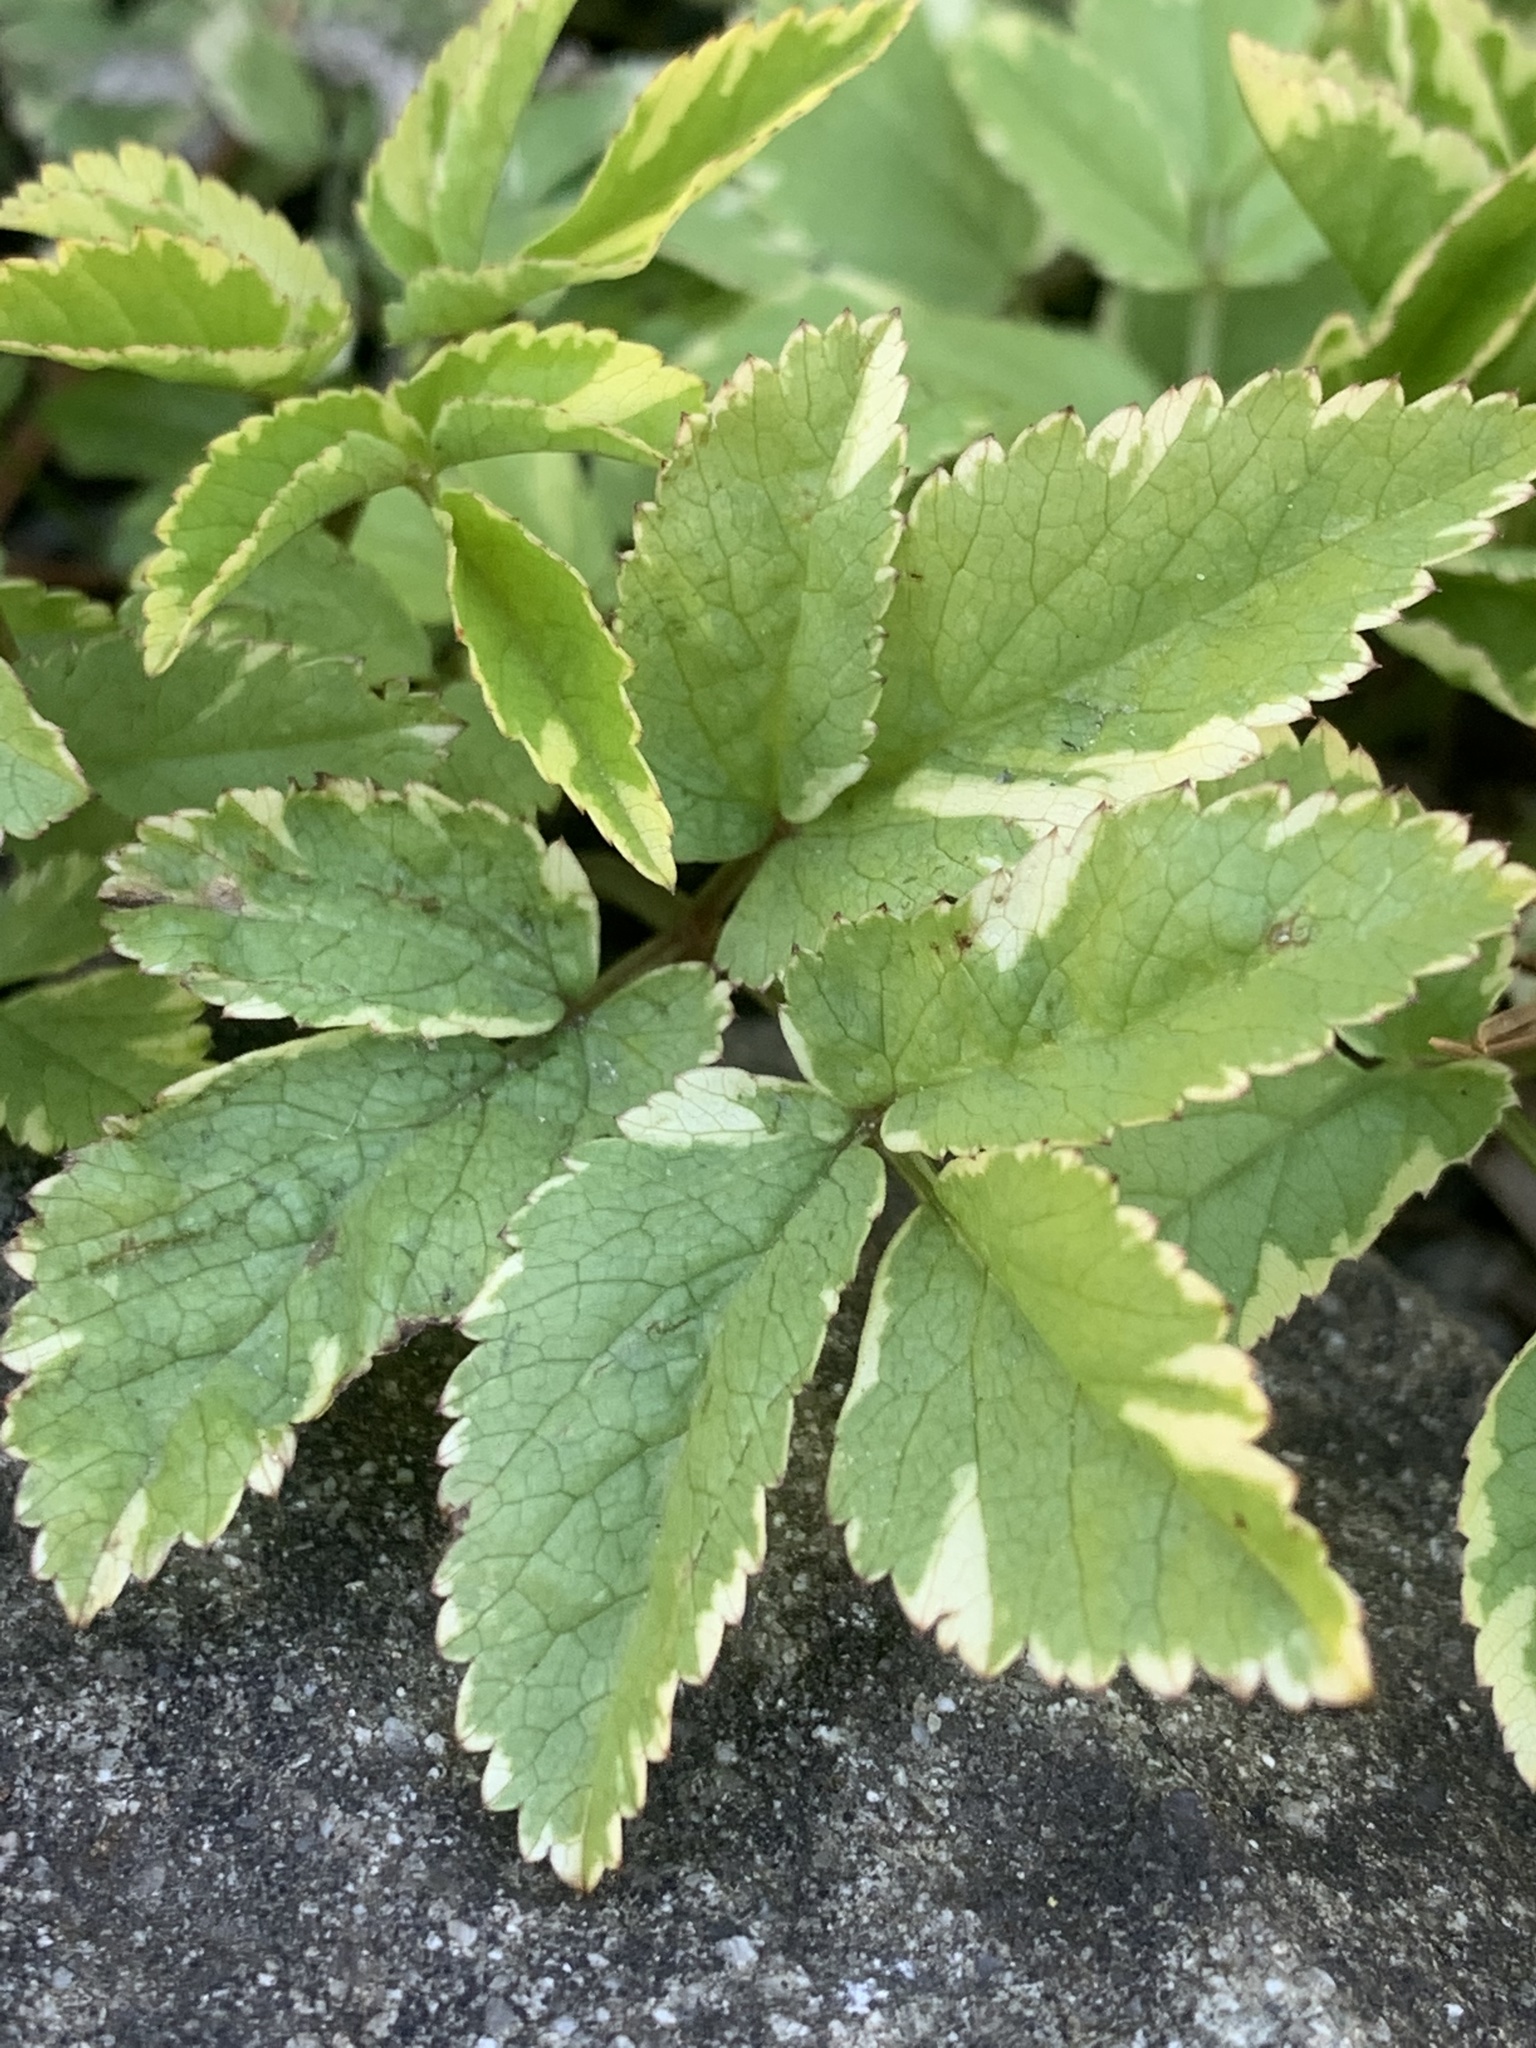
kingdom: Plantae
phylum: Tracheophyta
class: Magnoliopsida
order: Apiales
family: Apiaceae
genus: Aegopodium
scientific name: Aegopodium podagraria
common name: Ground-elder
